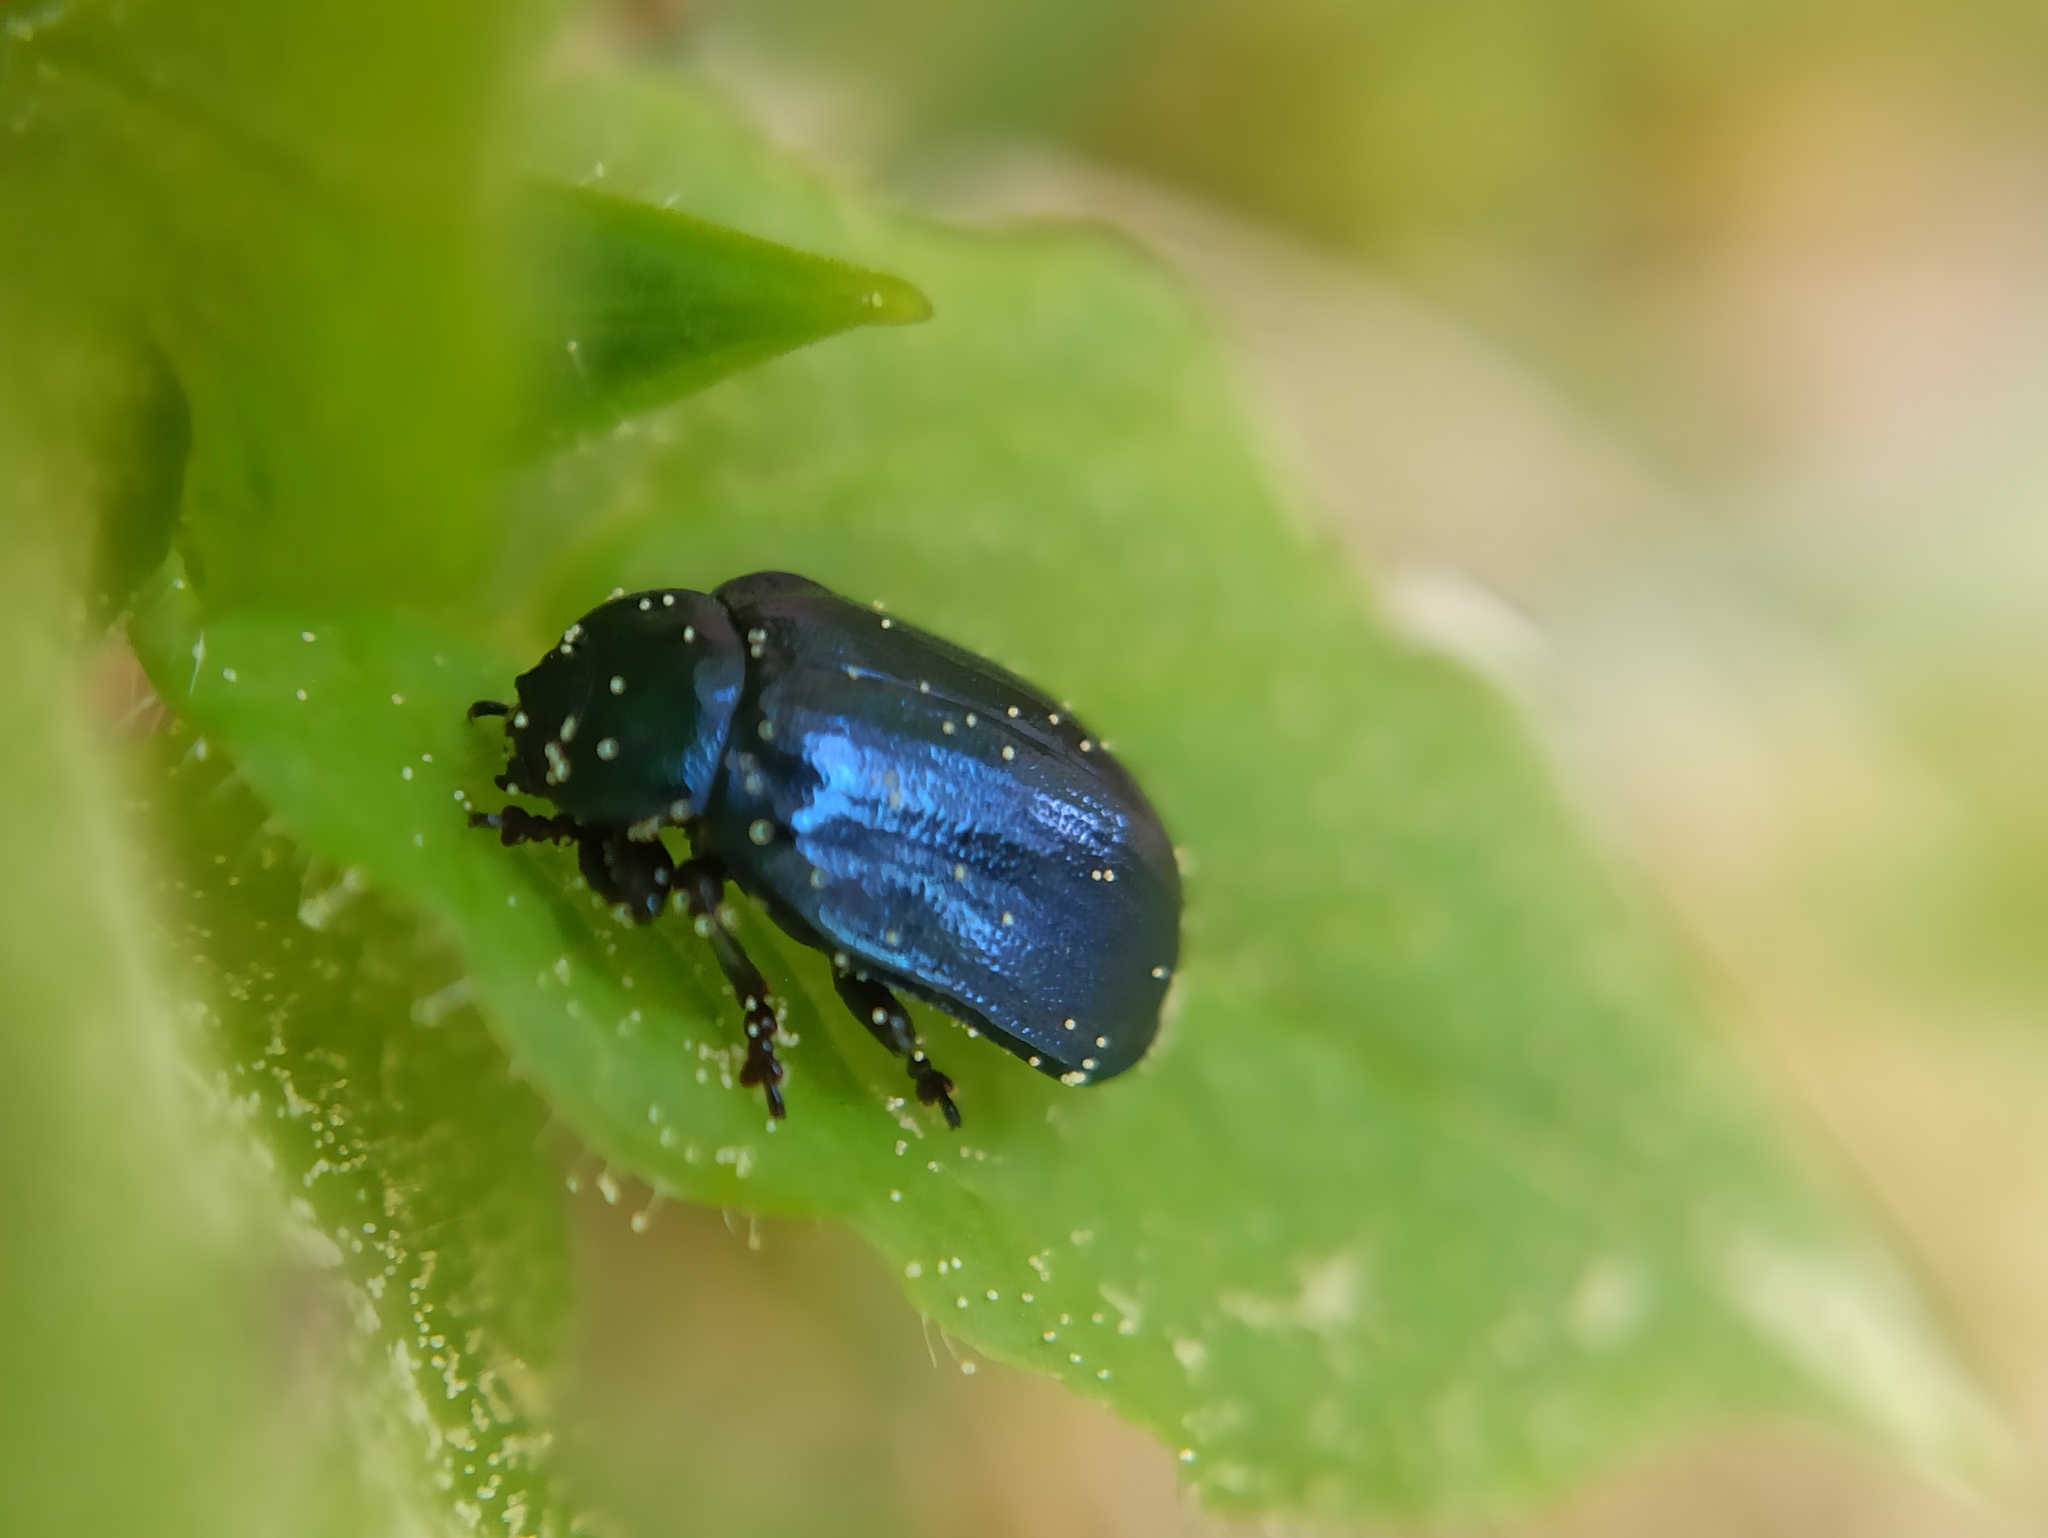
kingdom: Animalia
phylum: Arthropoda
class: Insecta
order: Coleoptera
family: Chrysomelidae
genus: Plagiosterna
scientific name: Plagiosterna aenea
